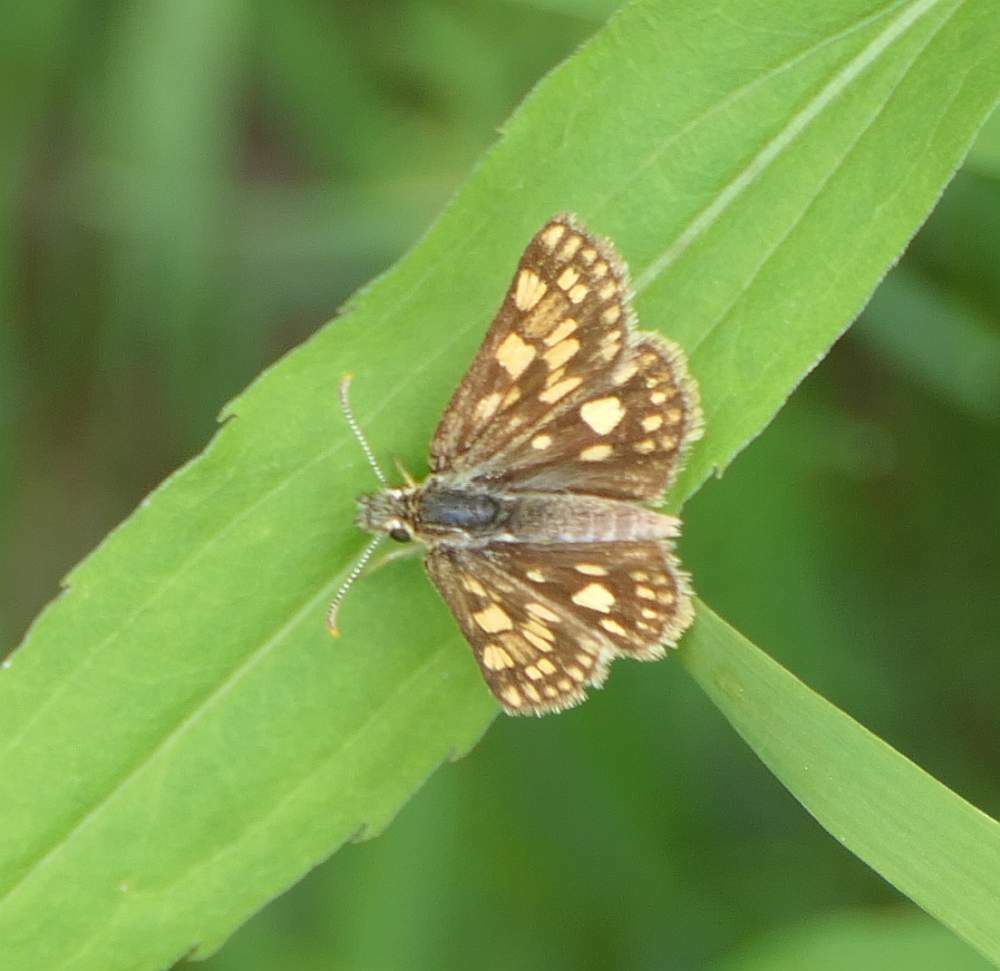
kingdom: Animalia
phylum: Arthropoda
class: Insecta
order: Lepidoptera
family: Hesperiidae
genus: Carterocephalus
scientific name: Carterocephalus mandan
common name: Arctic skipperling
